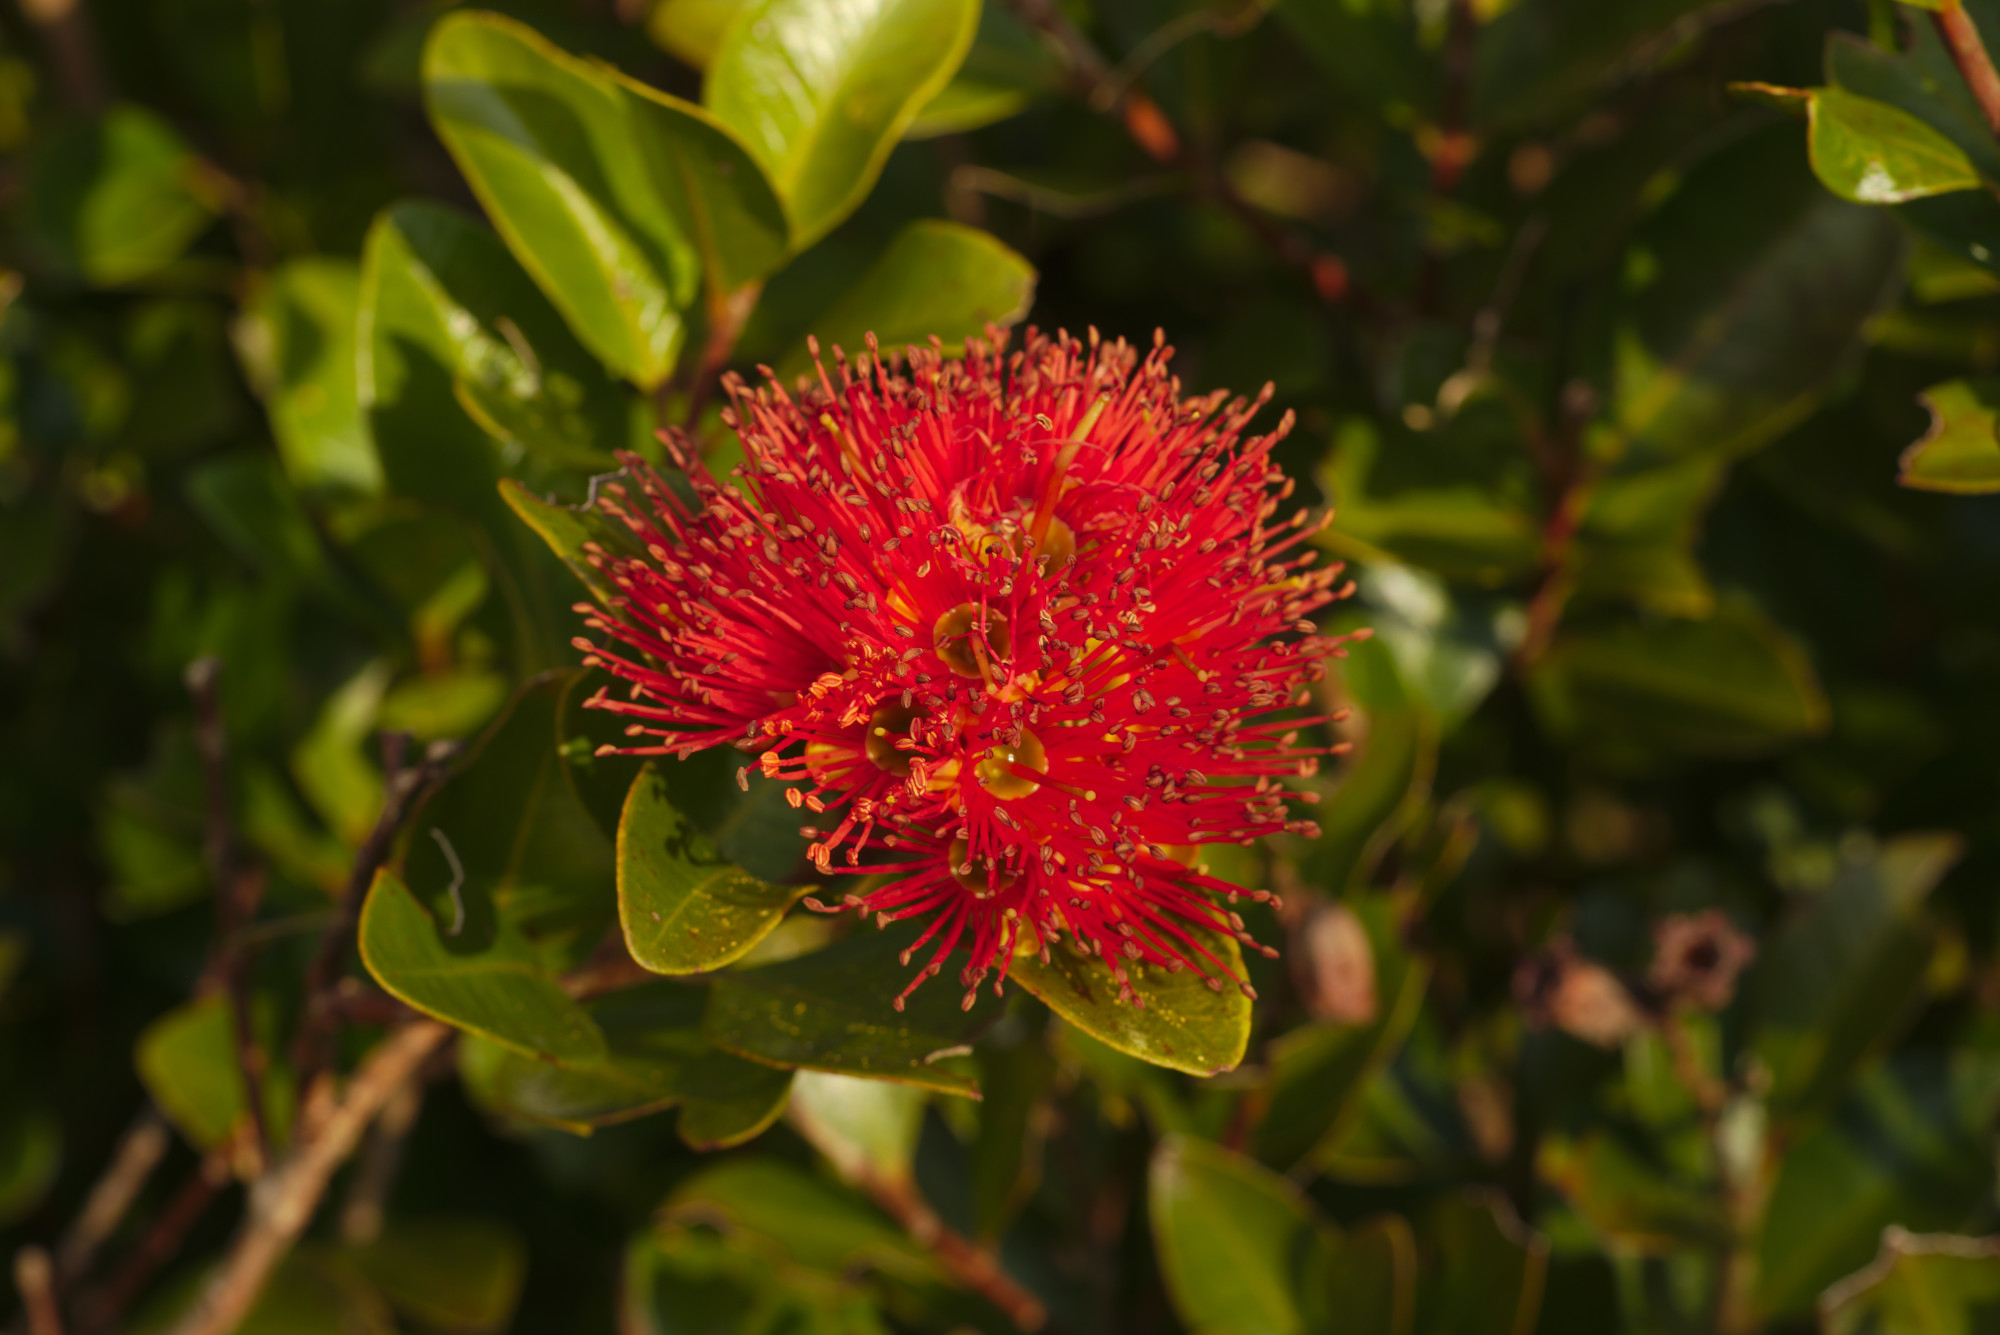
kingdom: Plantae
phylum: Tracheophyta
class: Magnoliopsida
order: Myrtales
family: Myrtaceae
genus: Metrosideros
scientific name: Metrosideros fulgens
